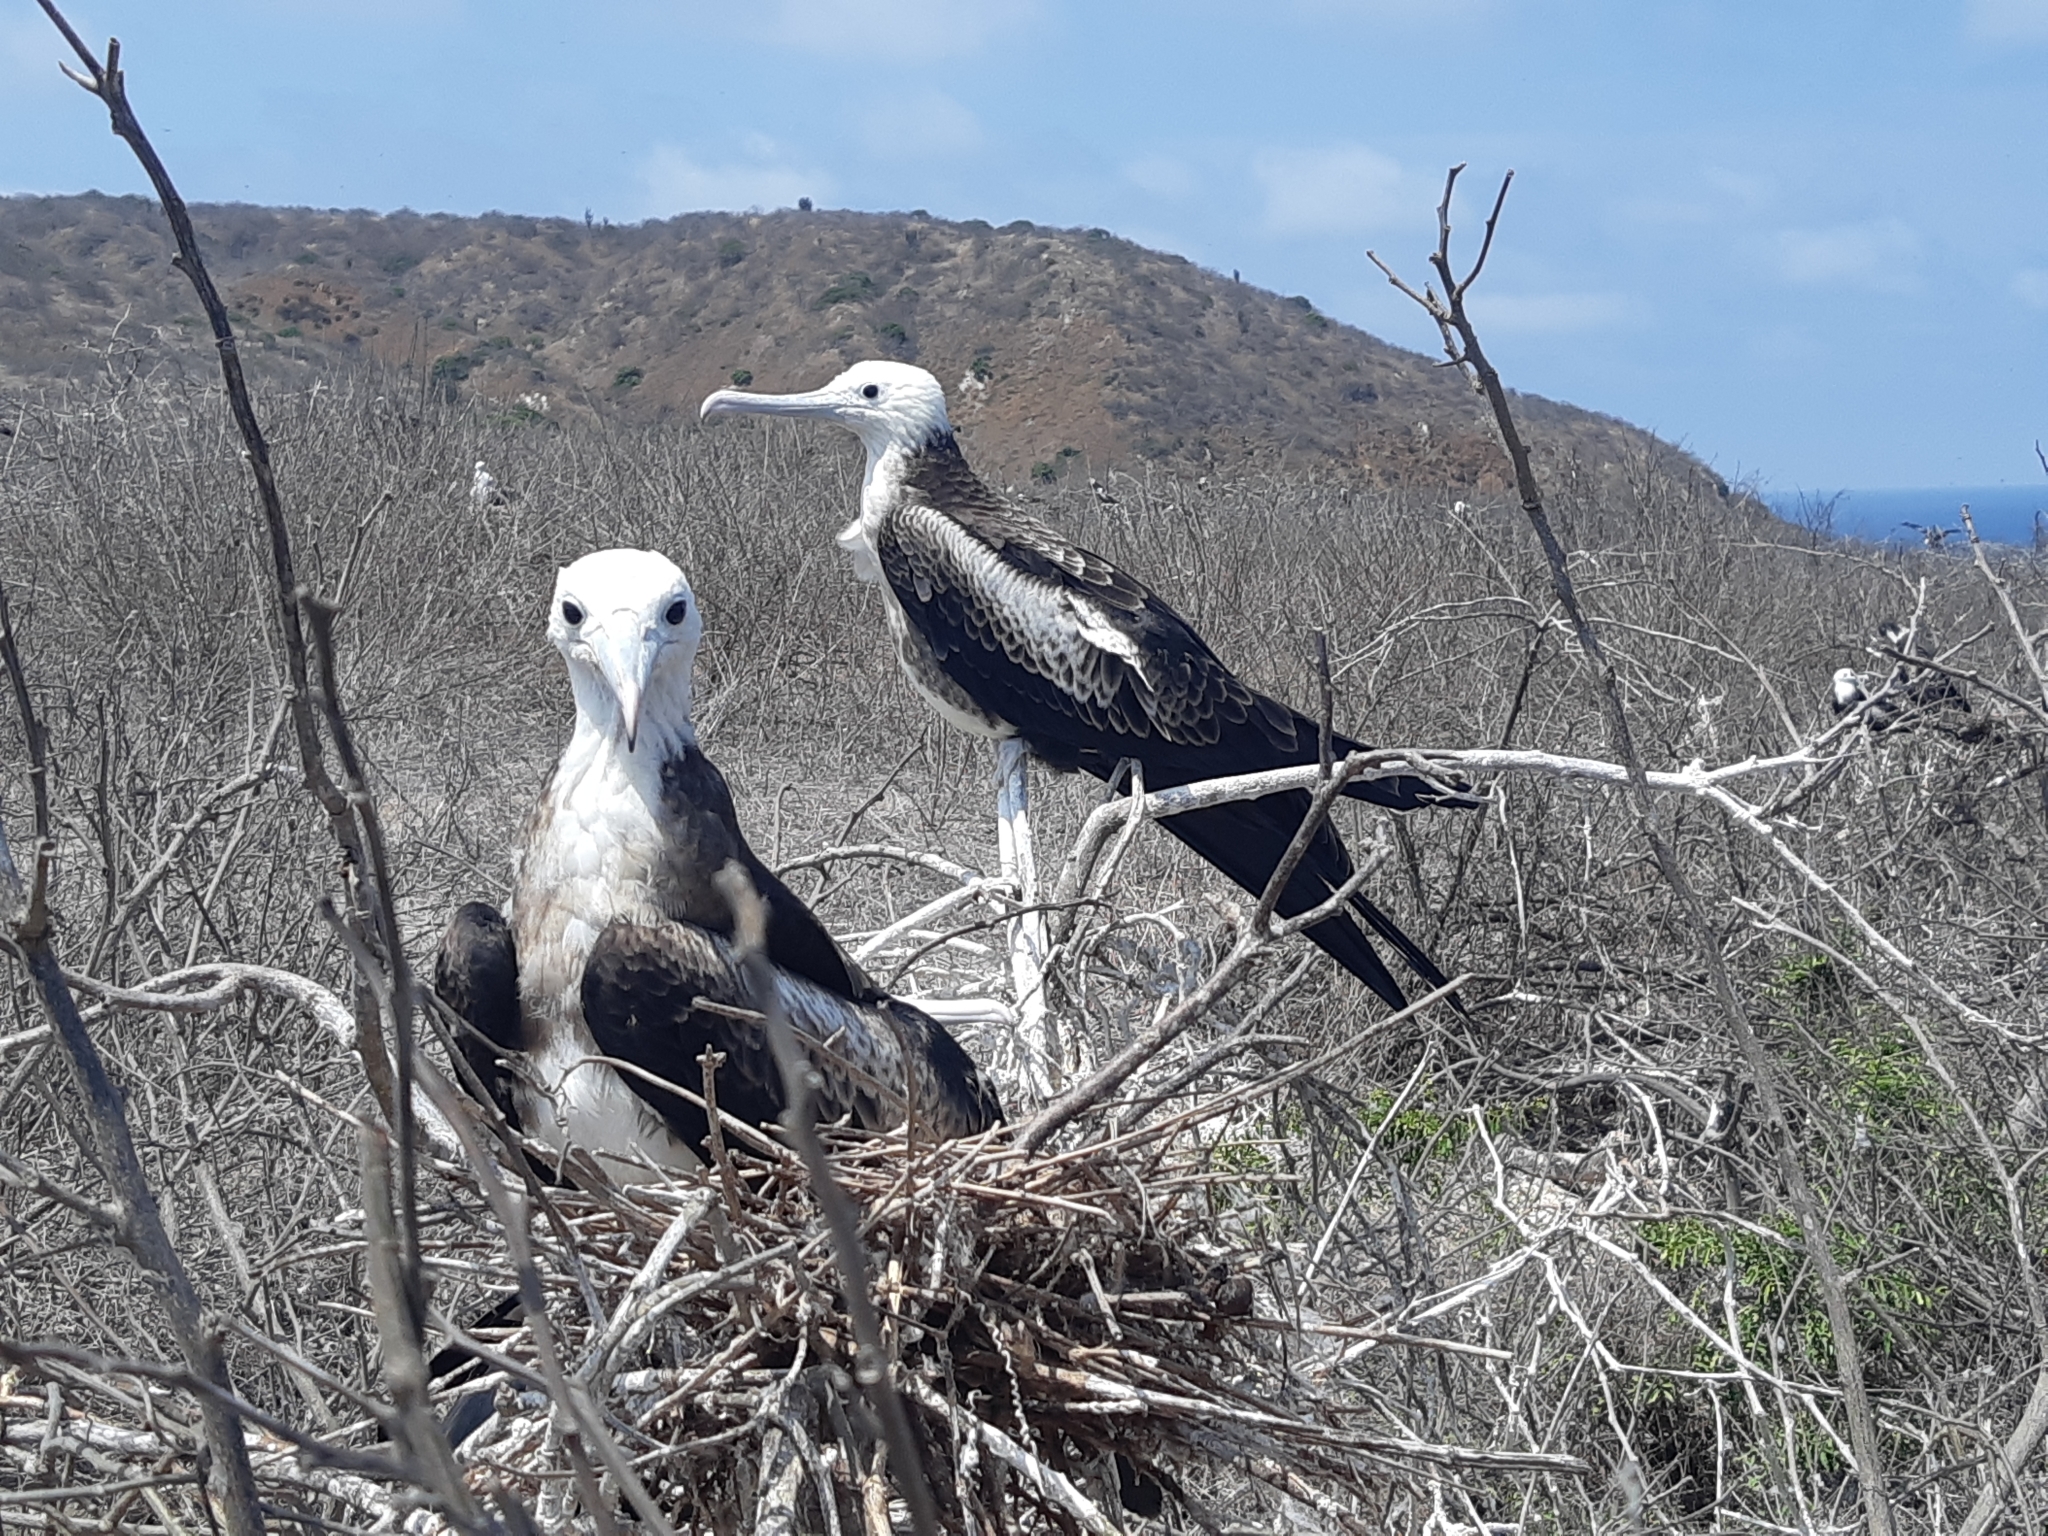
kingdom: Animalia
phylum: Chordata
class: Aves
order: Suliformes
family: Fregatidae
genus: Fregata
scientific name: Fregata magnificens
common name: Magnificent frigatebird
